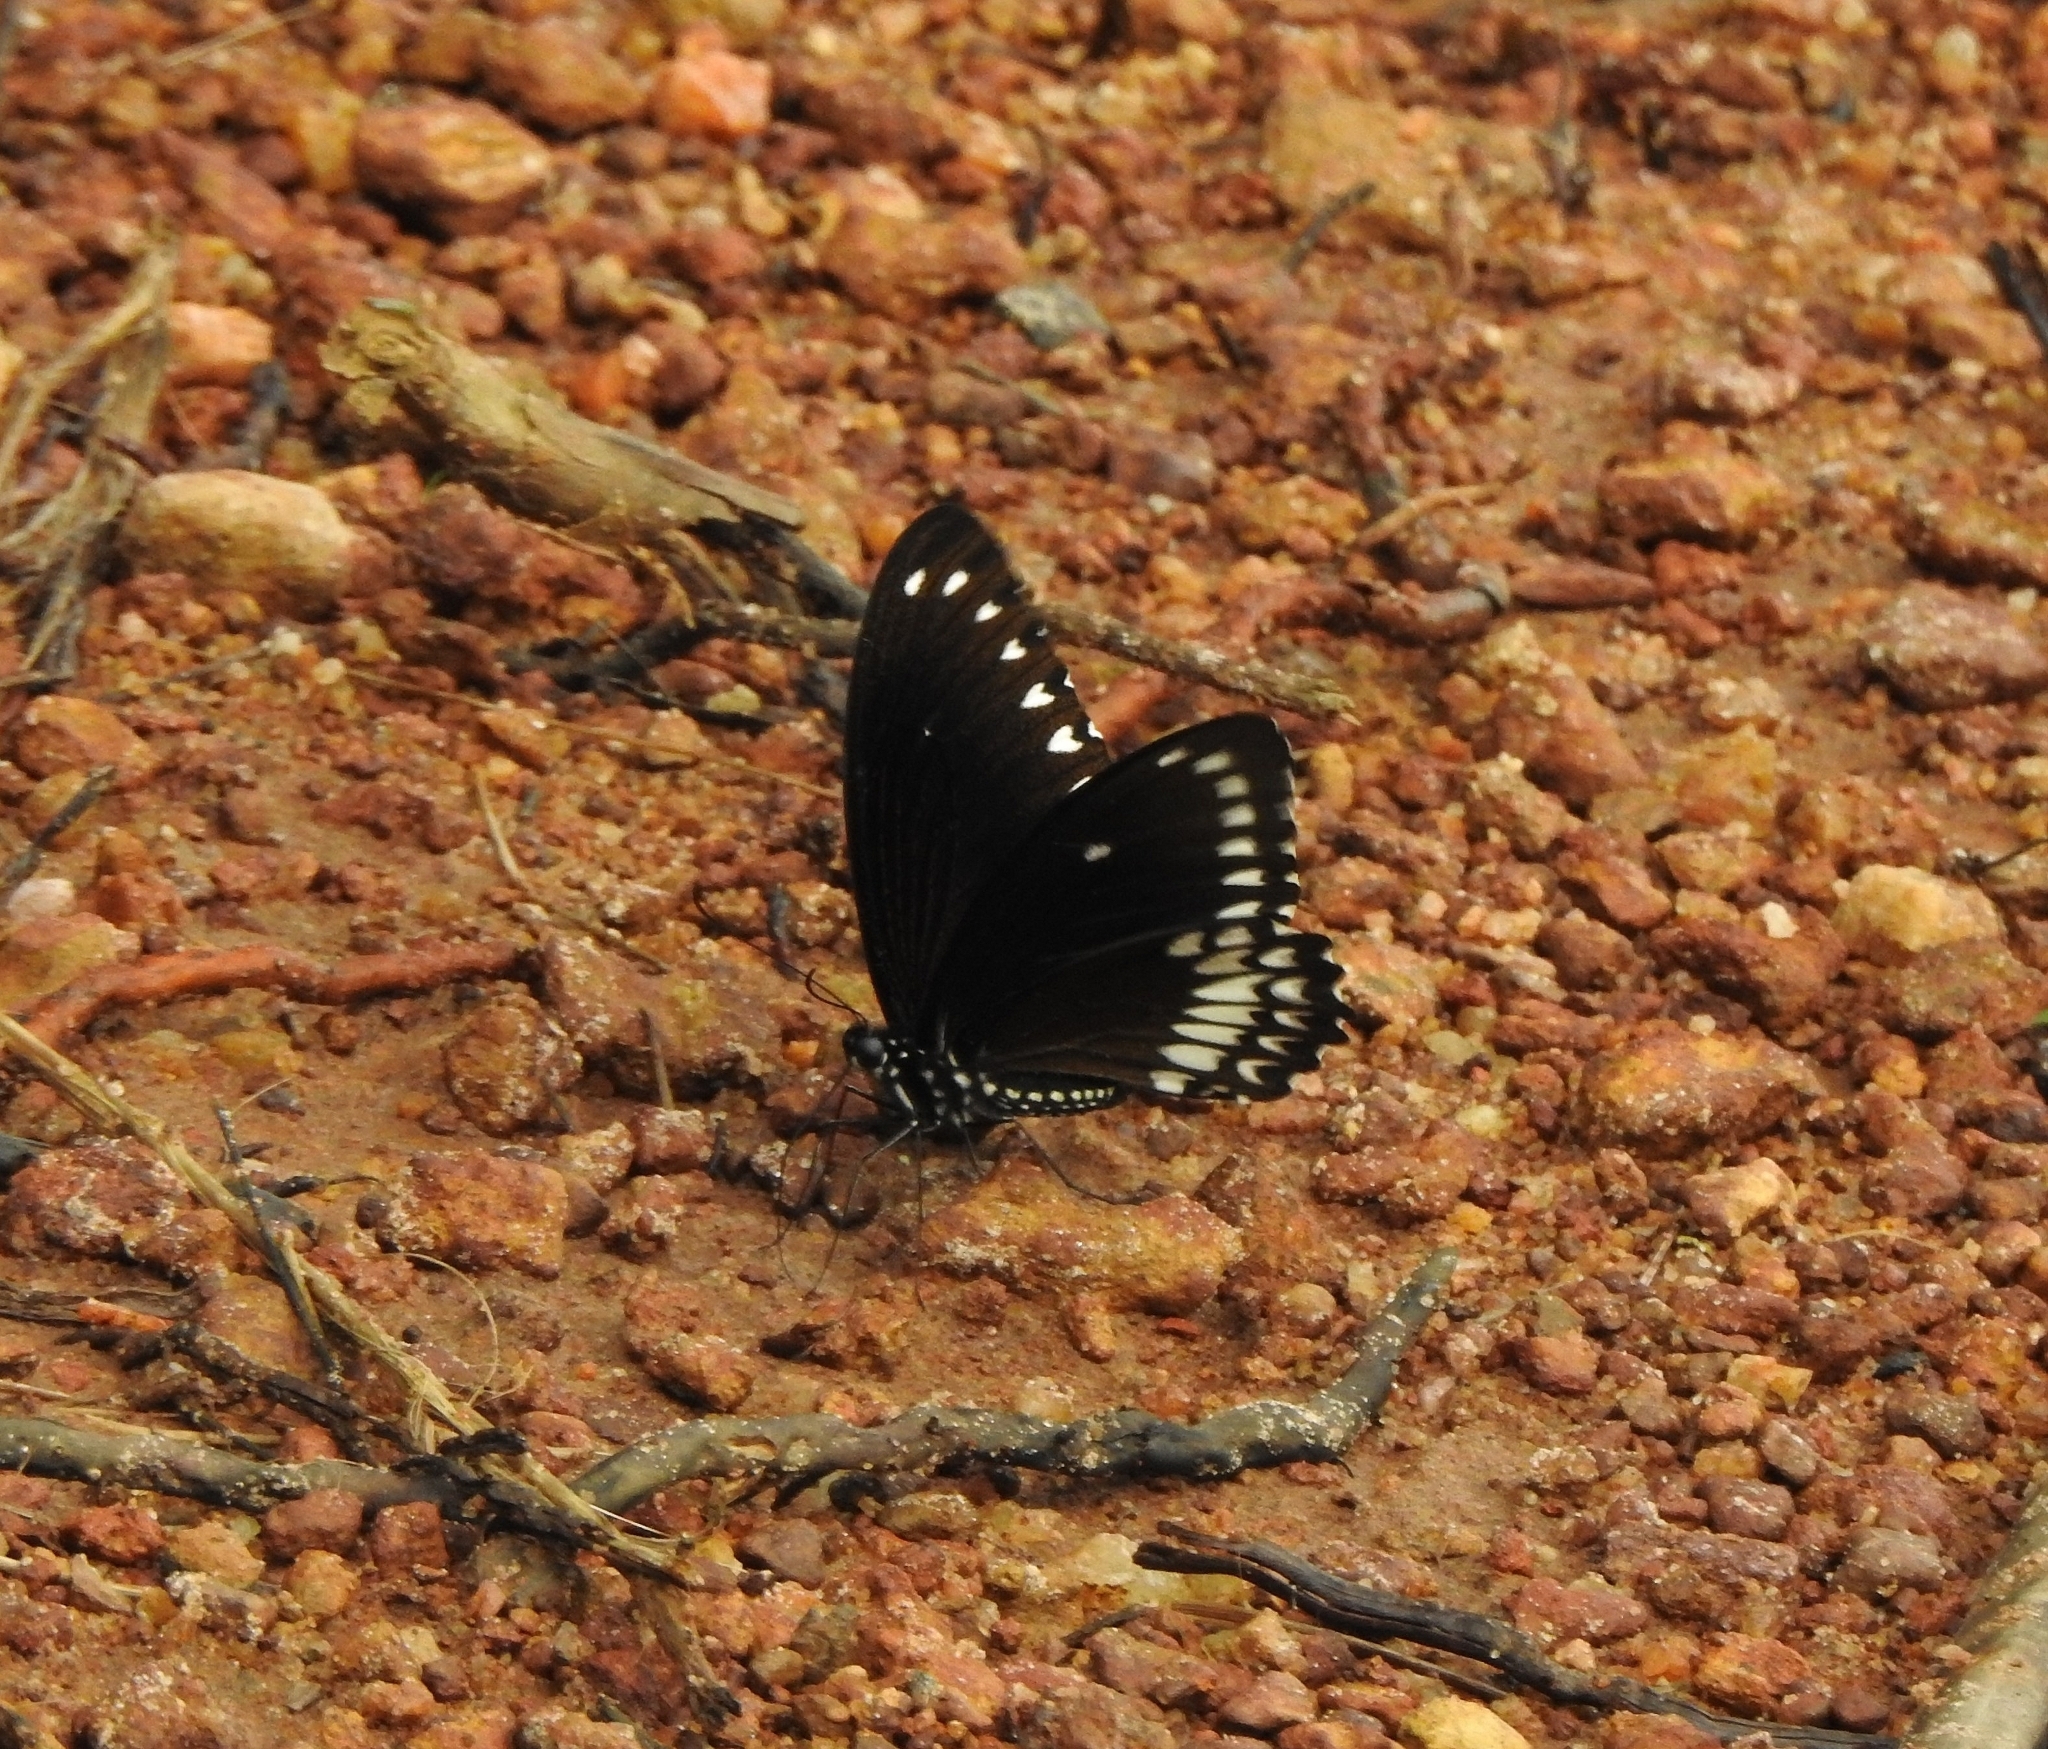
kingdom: Animalia
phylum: Arthropoda
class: Insecta
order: Lepidoptera
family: Papilionidae
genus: Papilio
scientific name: Papilio dravidarum
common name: Malabar raven
